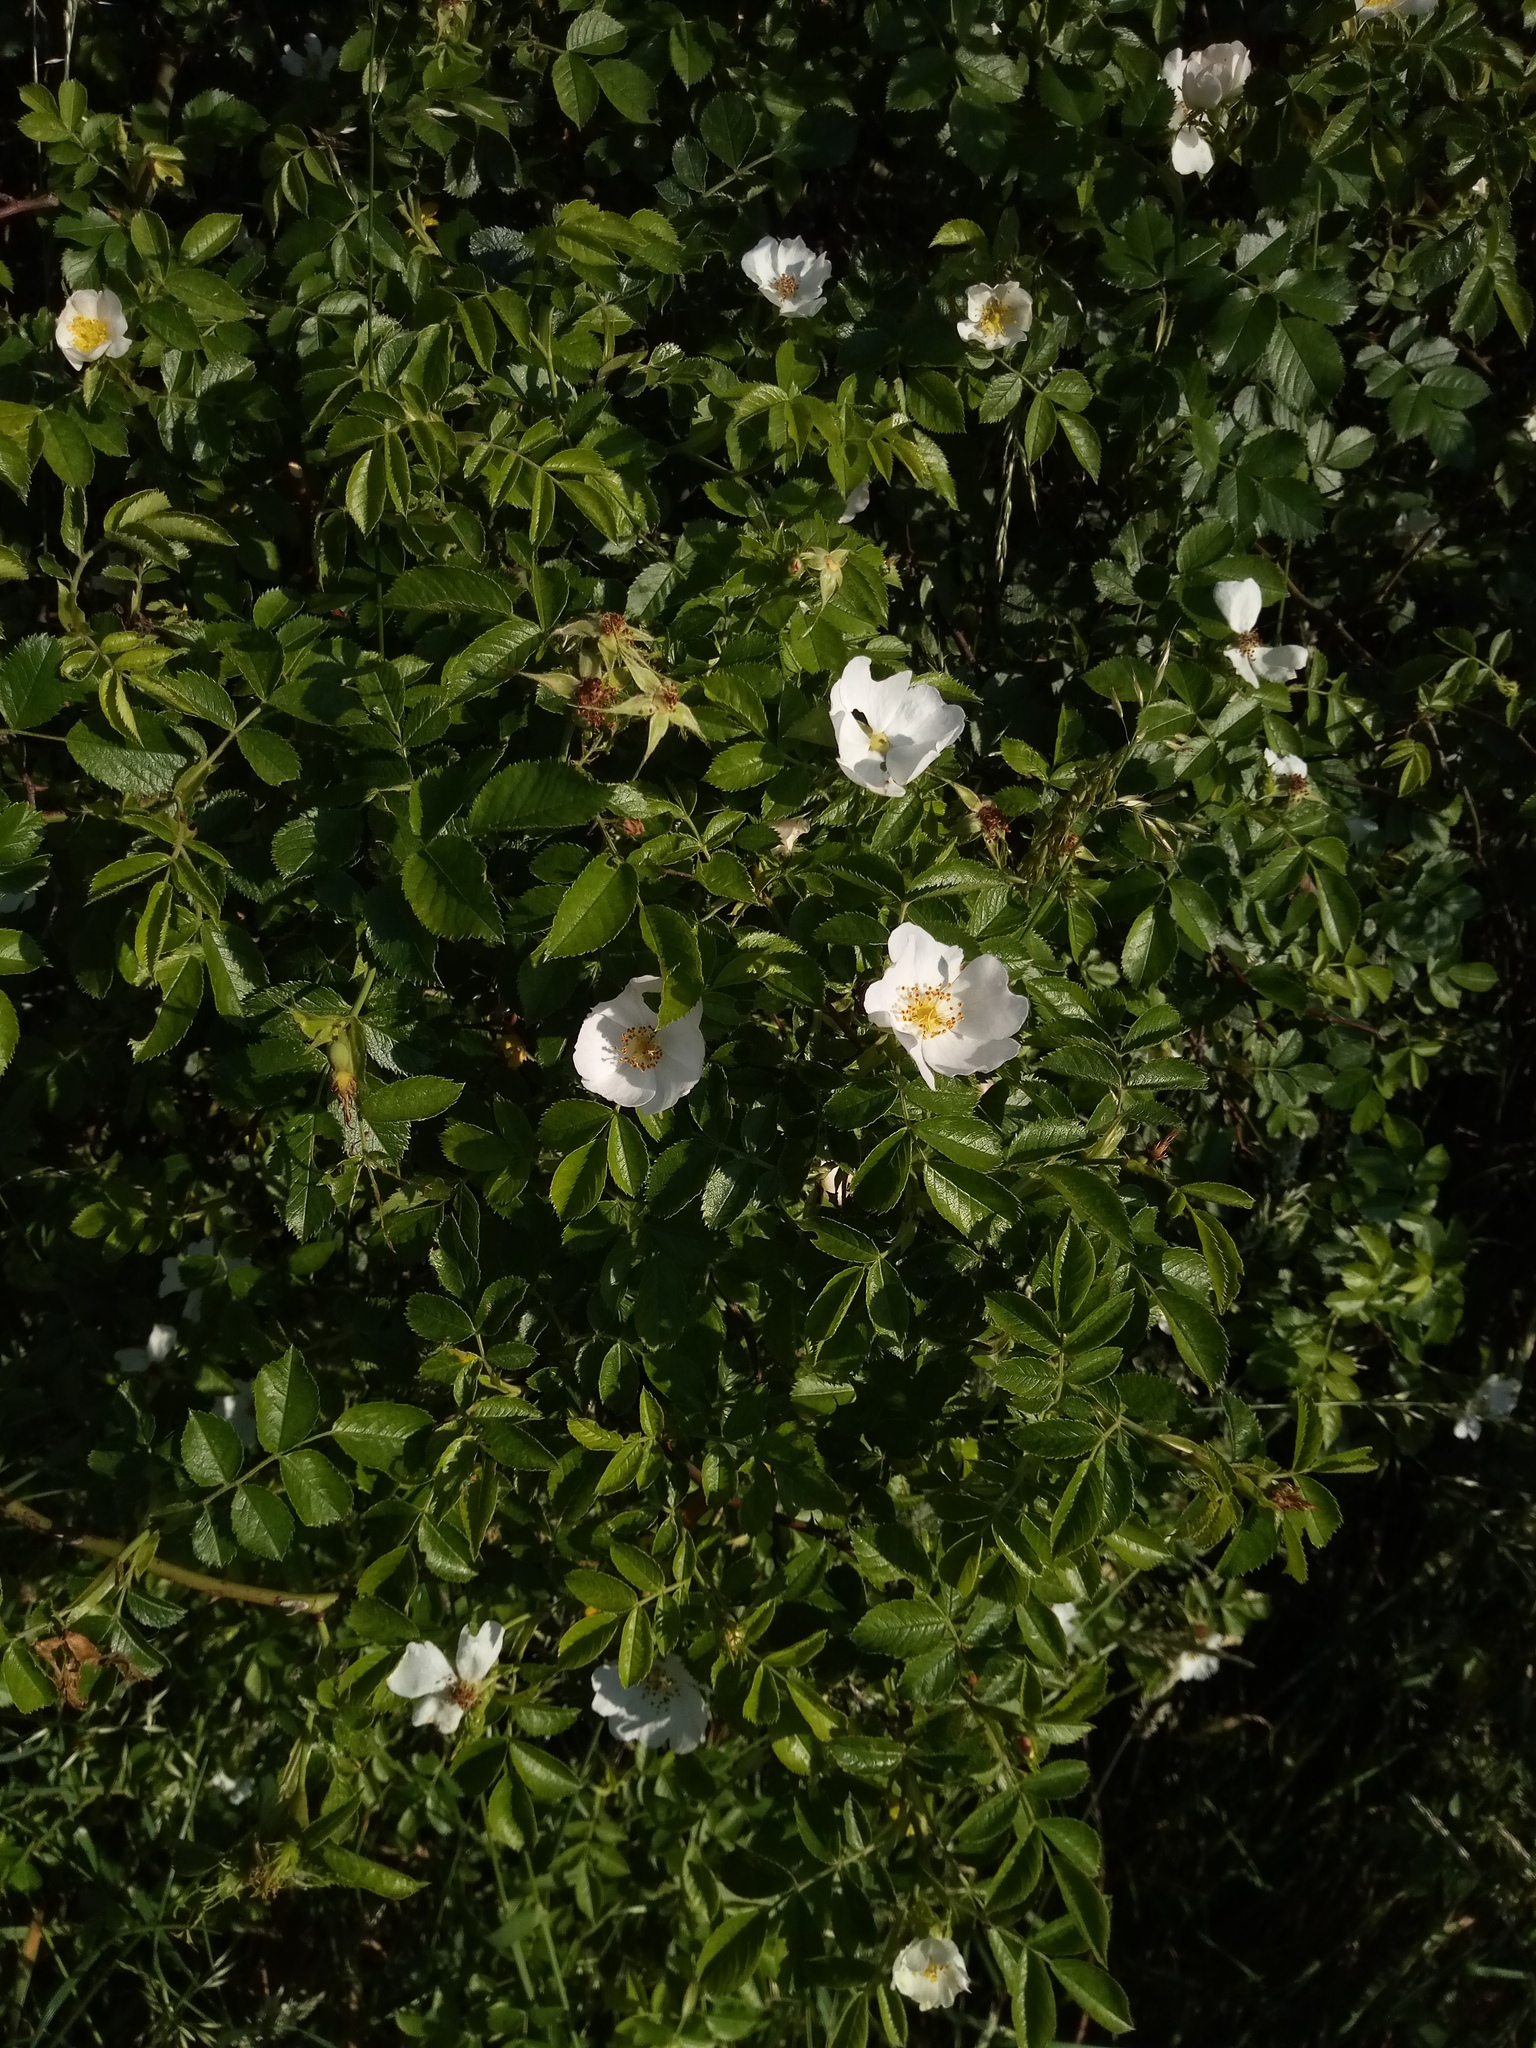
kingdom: Plantae
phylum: Tracheophyta
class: Magnoliopsida
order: Rosales
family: Rosaceae
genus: Rosa
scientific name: Rosa agrestis
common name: Fieldbriar
